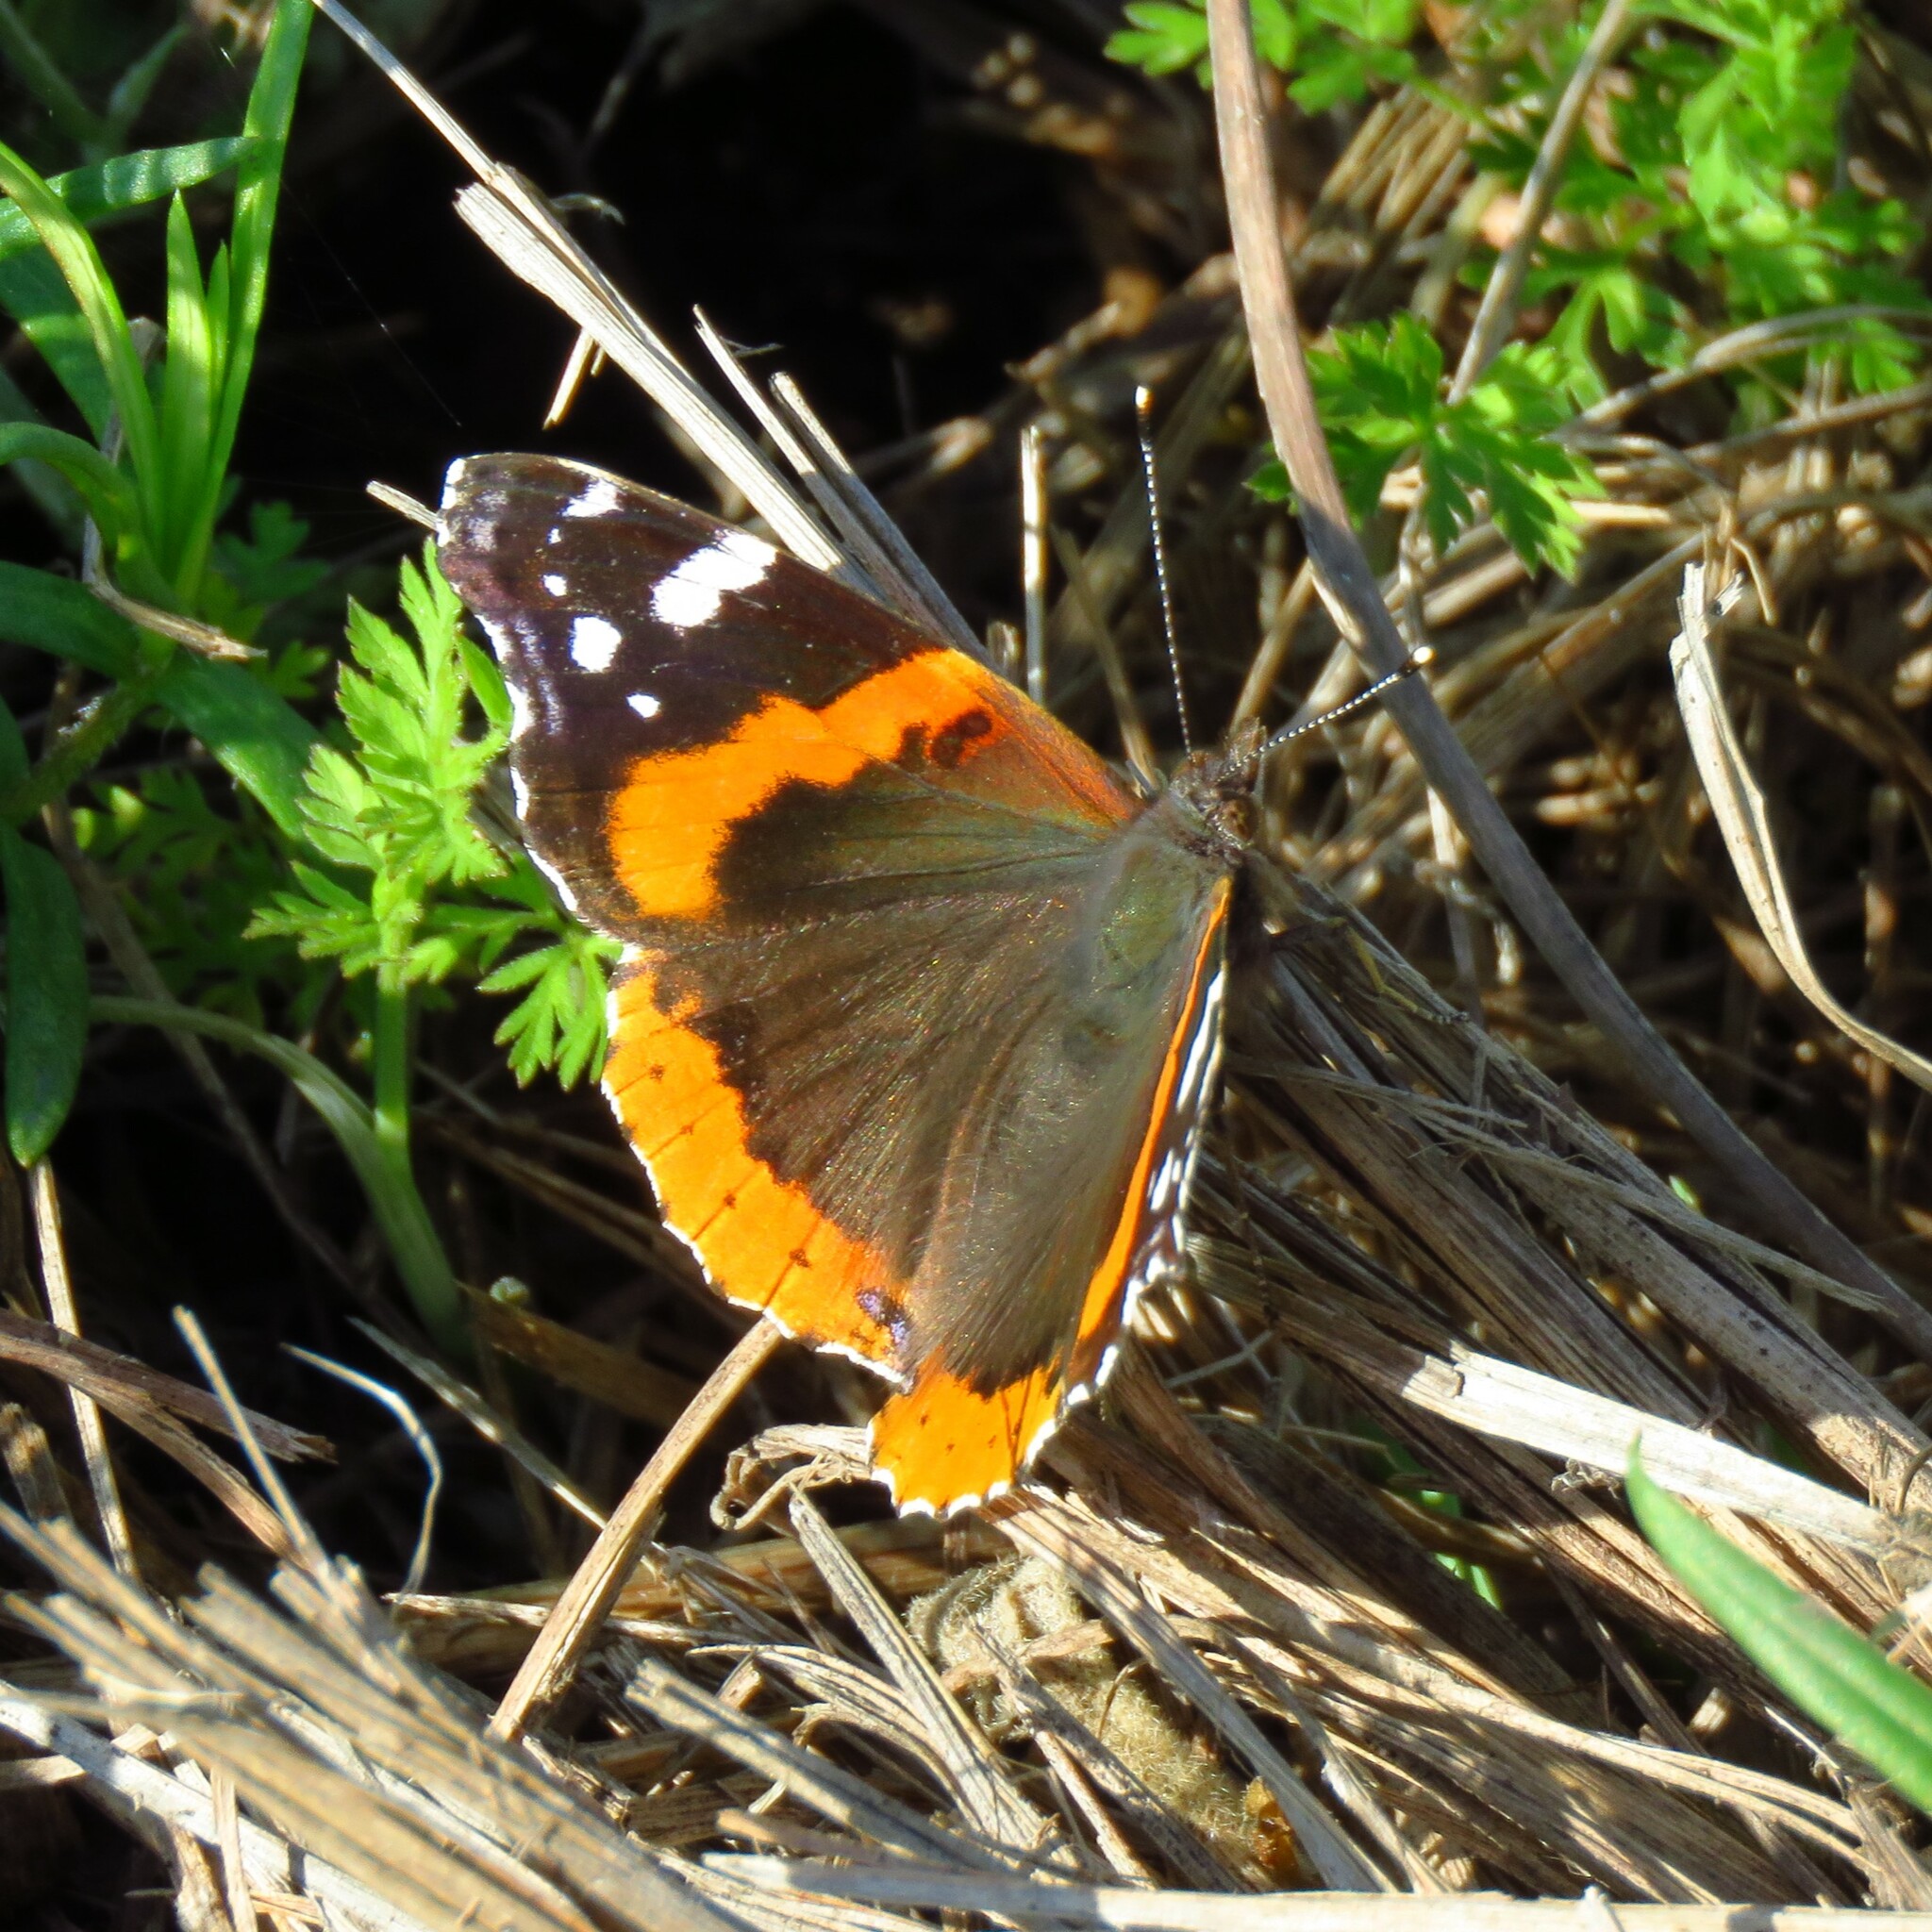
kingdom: Animalia
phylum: Arthropoda
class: Insecta
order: Lepidoptera
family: Nymphalidae
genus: Vanessa
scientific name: Vanessa atalanta
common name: Red admiral
